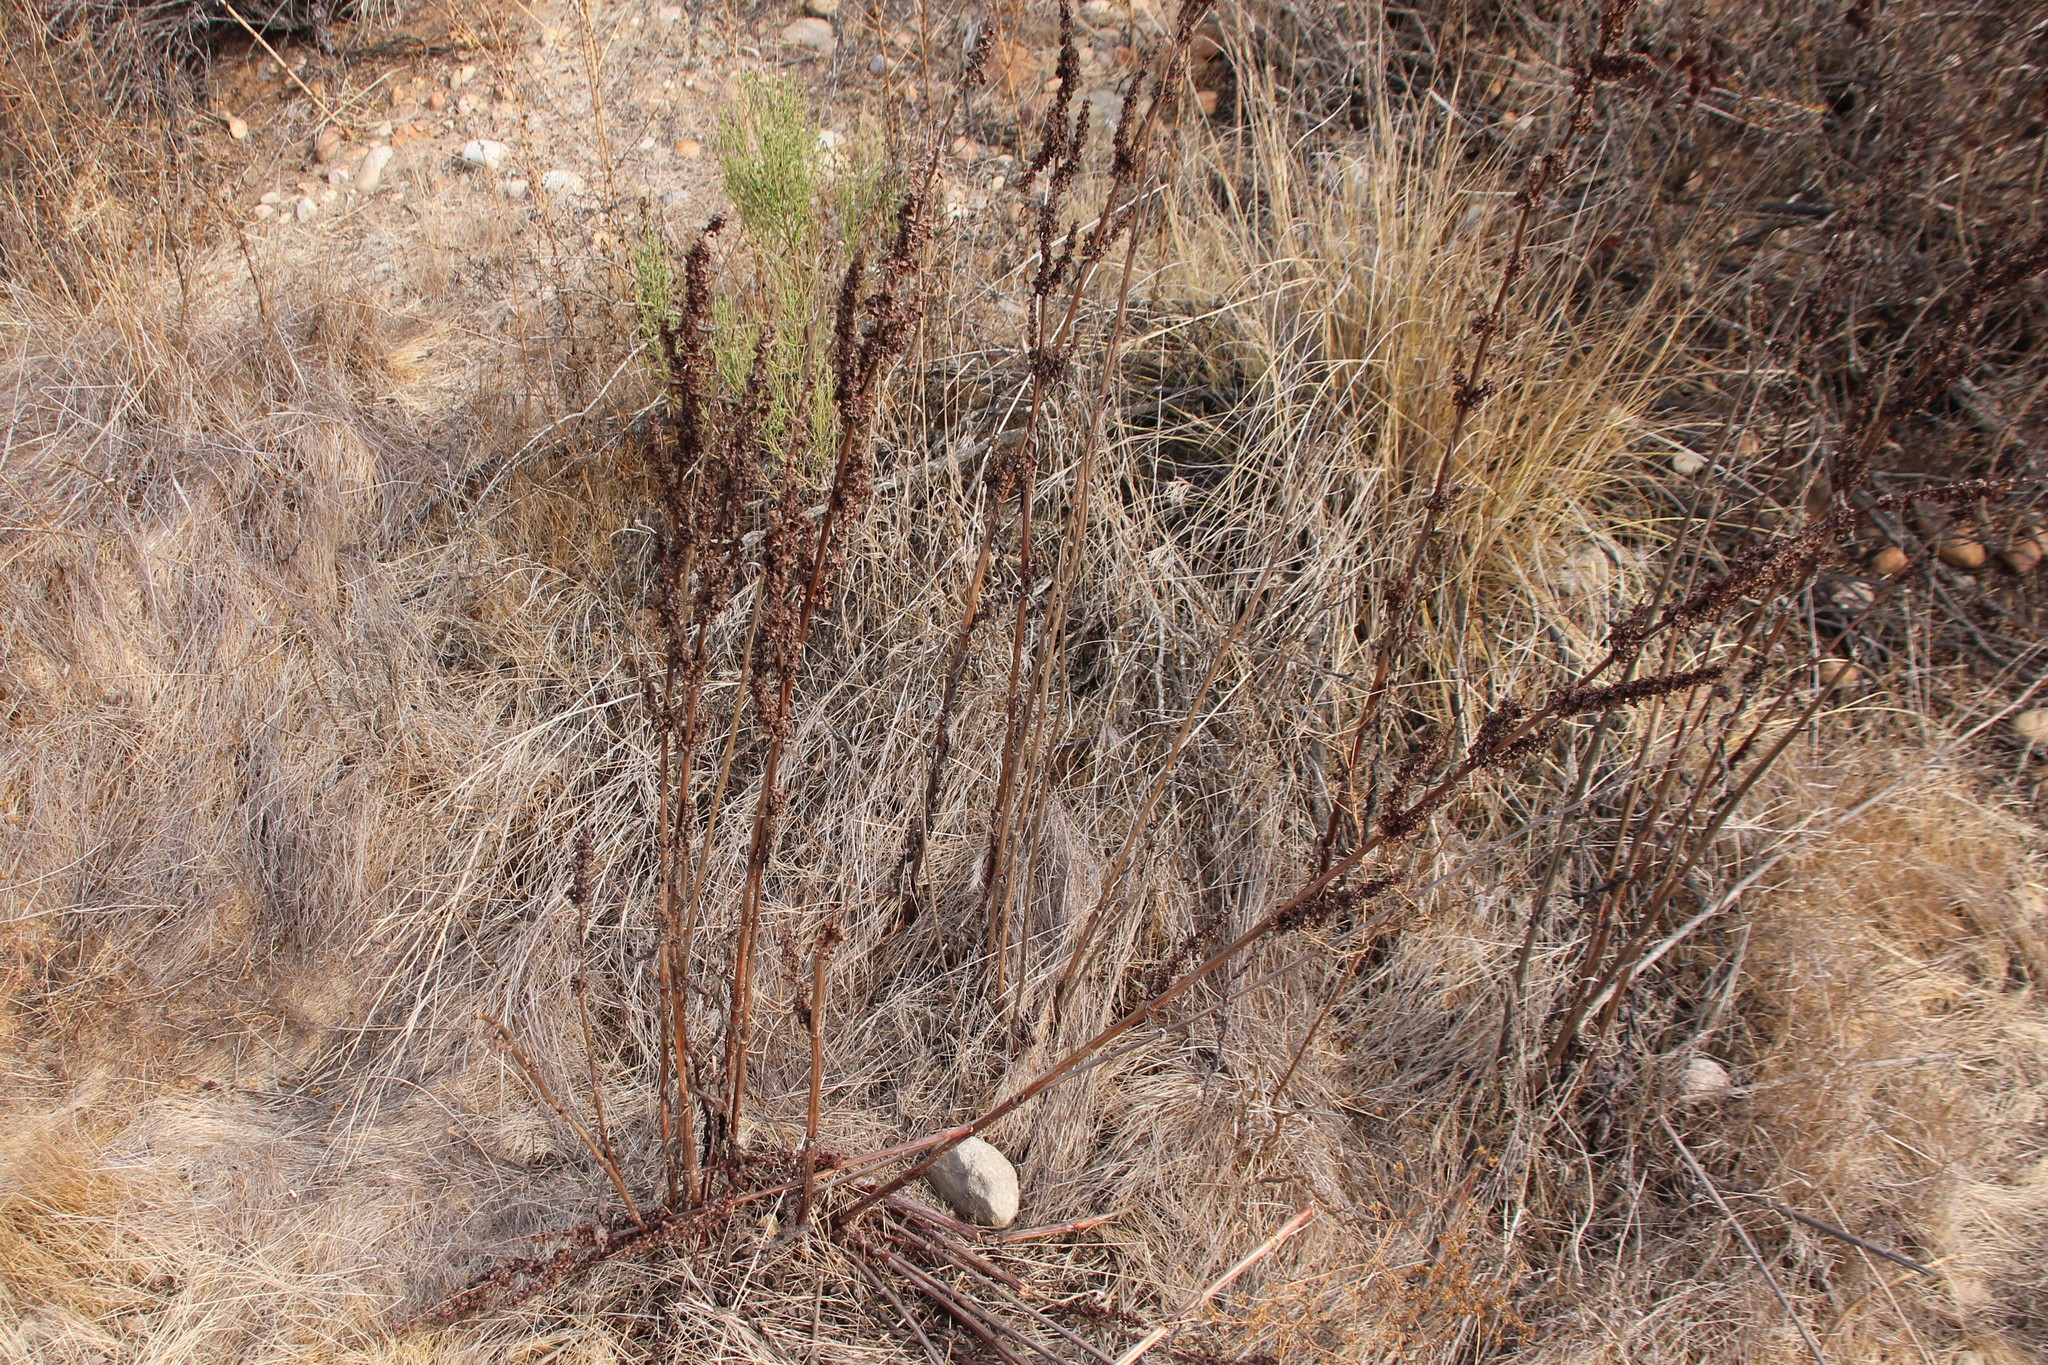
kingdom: Plantae
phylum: Tracheophyta
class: Magnoliopsida
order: Caryophyllales
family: Polygonaceae
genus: Rumex
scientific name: Rumex crispus
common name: Curled dock
